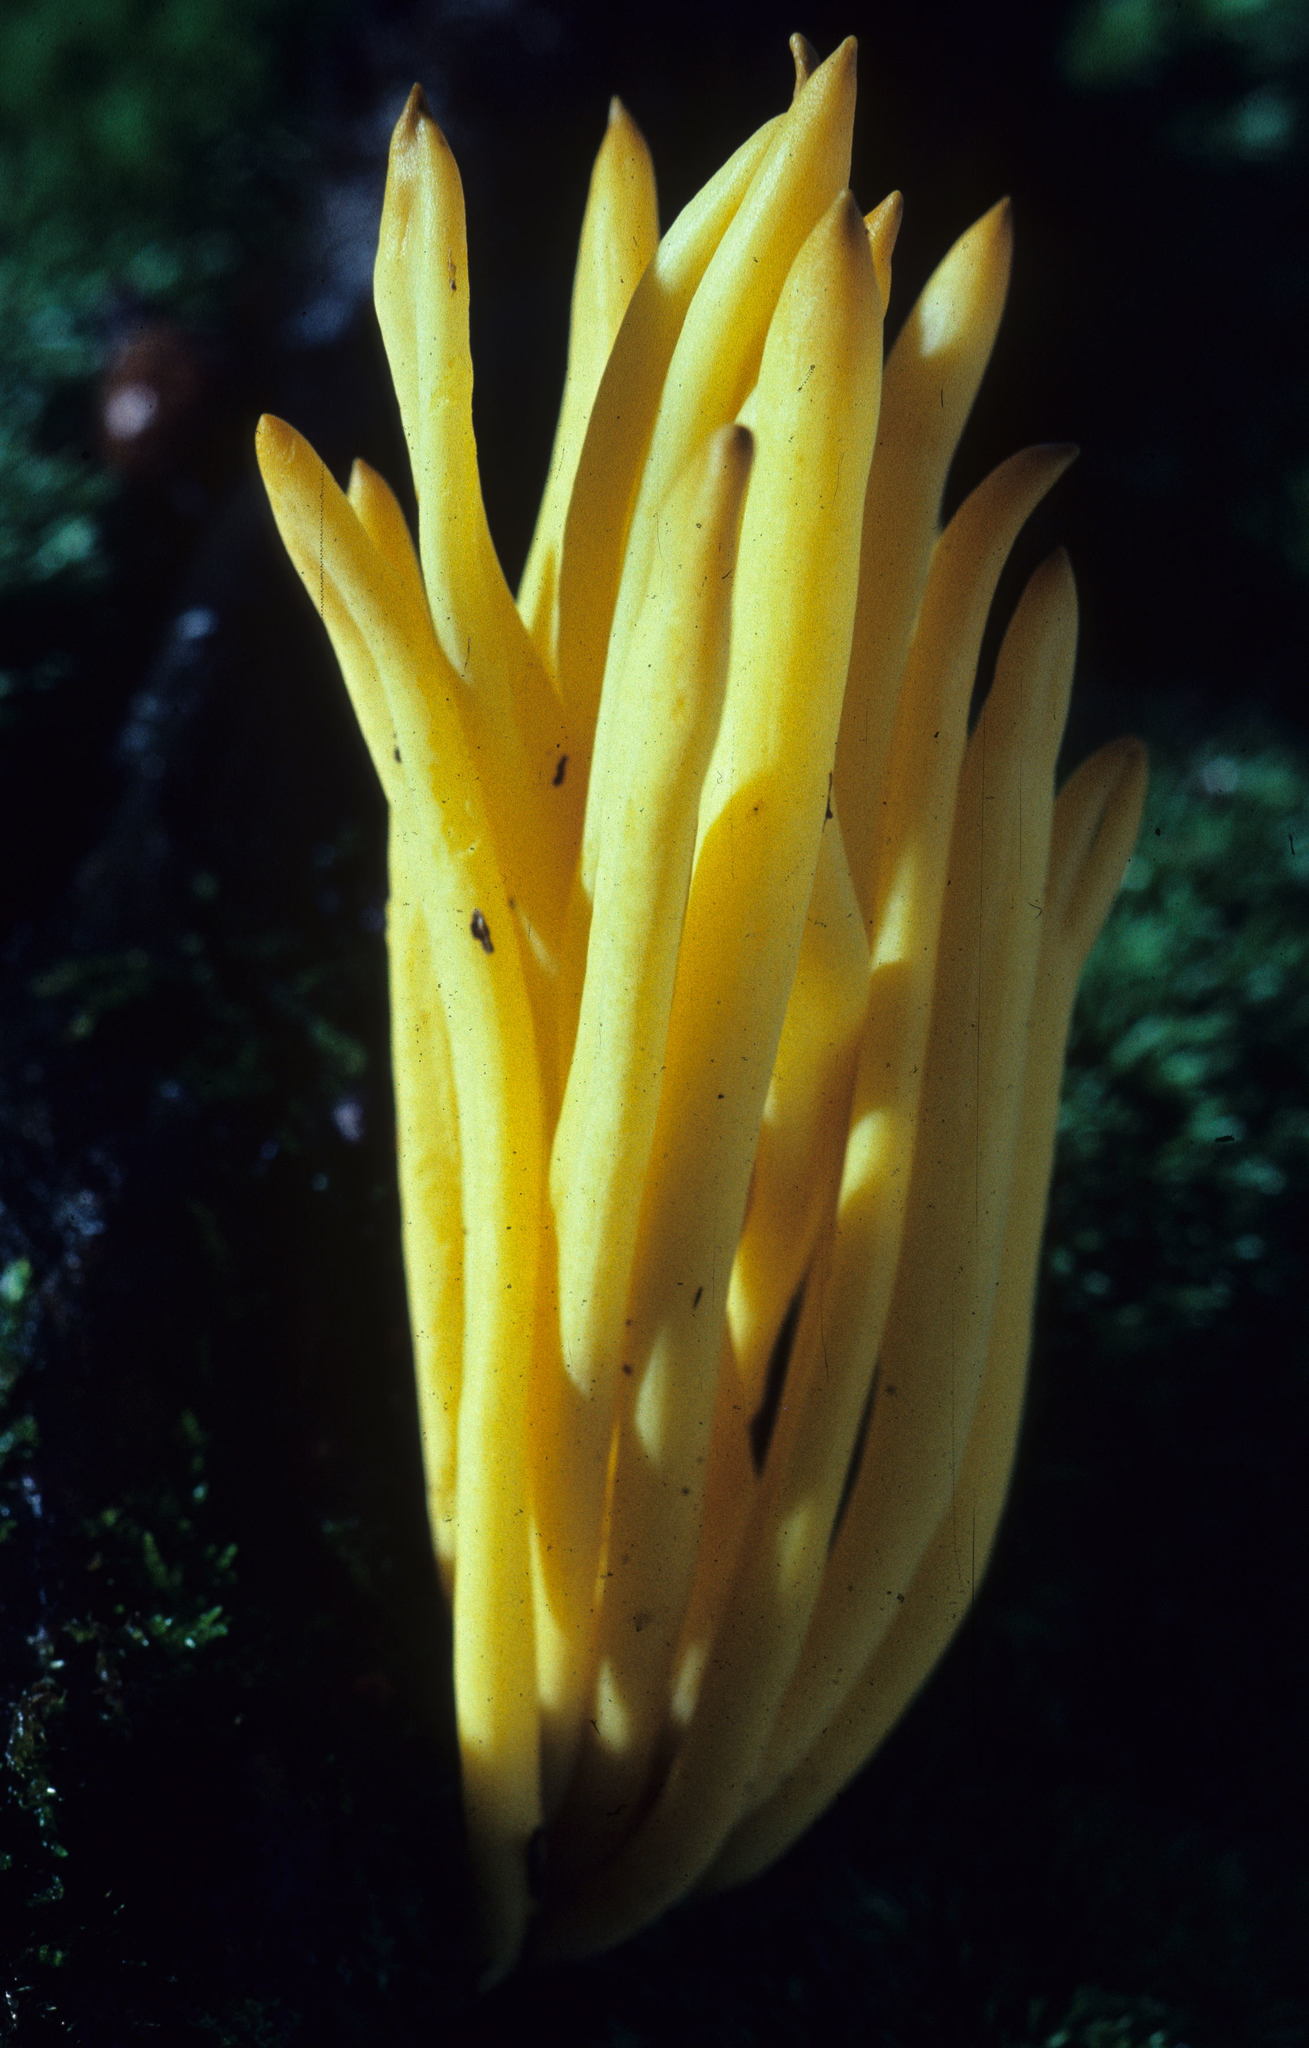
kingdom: Fungi
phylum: Basidiomycota
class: Agaricomycetes
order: Agaricales
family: Clavariaceae
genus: Clavulinopsis
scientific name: Clavulinopsis fusiformis
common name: Golden spindles
